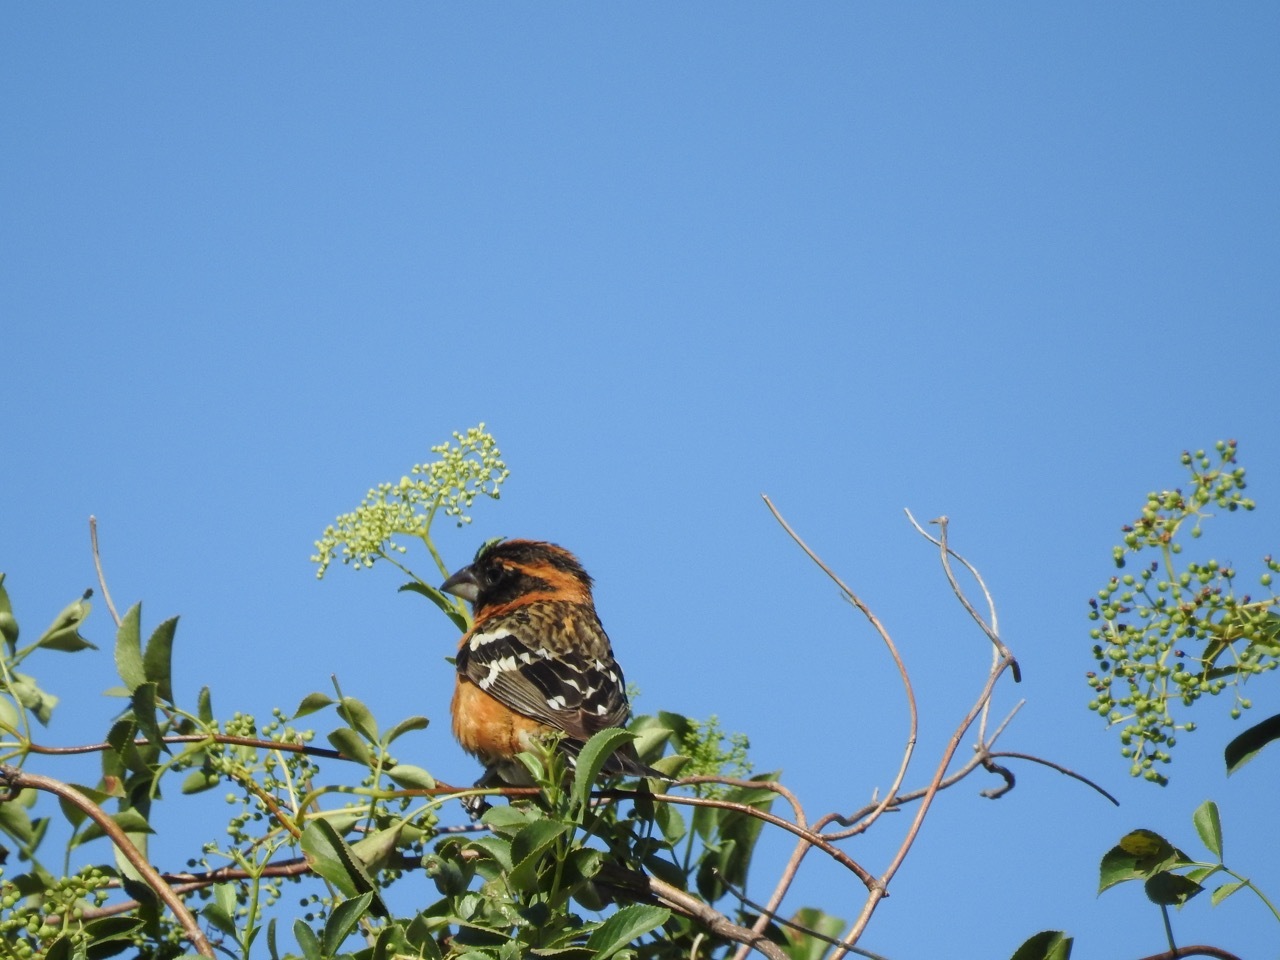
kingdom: Animalia
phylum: Chordata
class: Aves
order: Passeriformes
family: Cardinalidae
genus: Pheucticus
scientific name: Pheucticus melanocephalus
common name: Black-headed grosbeak
